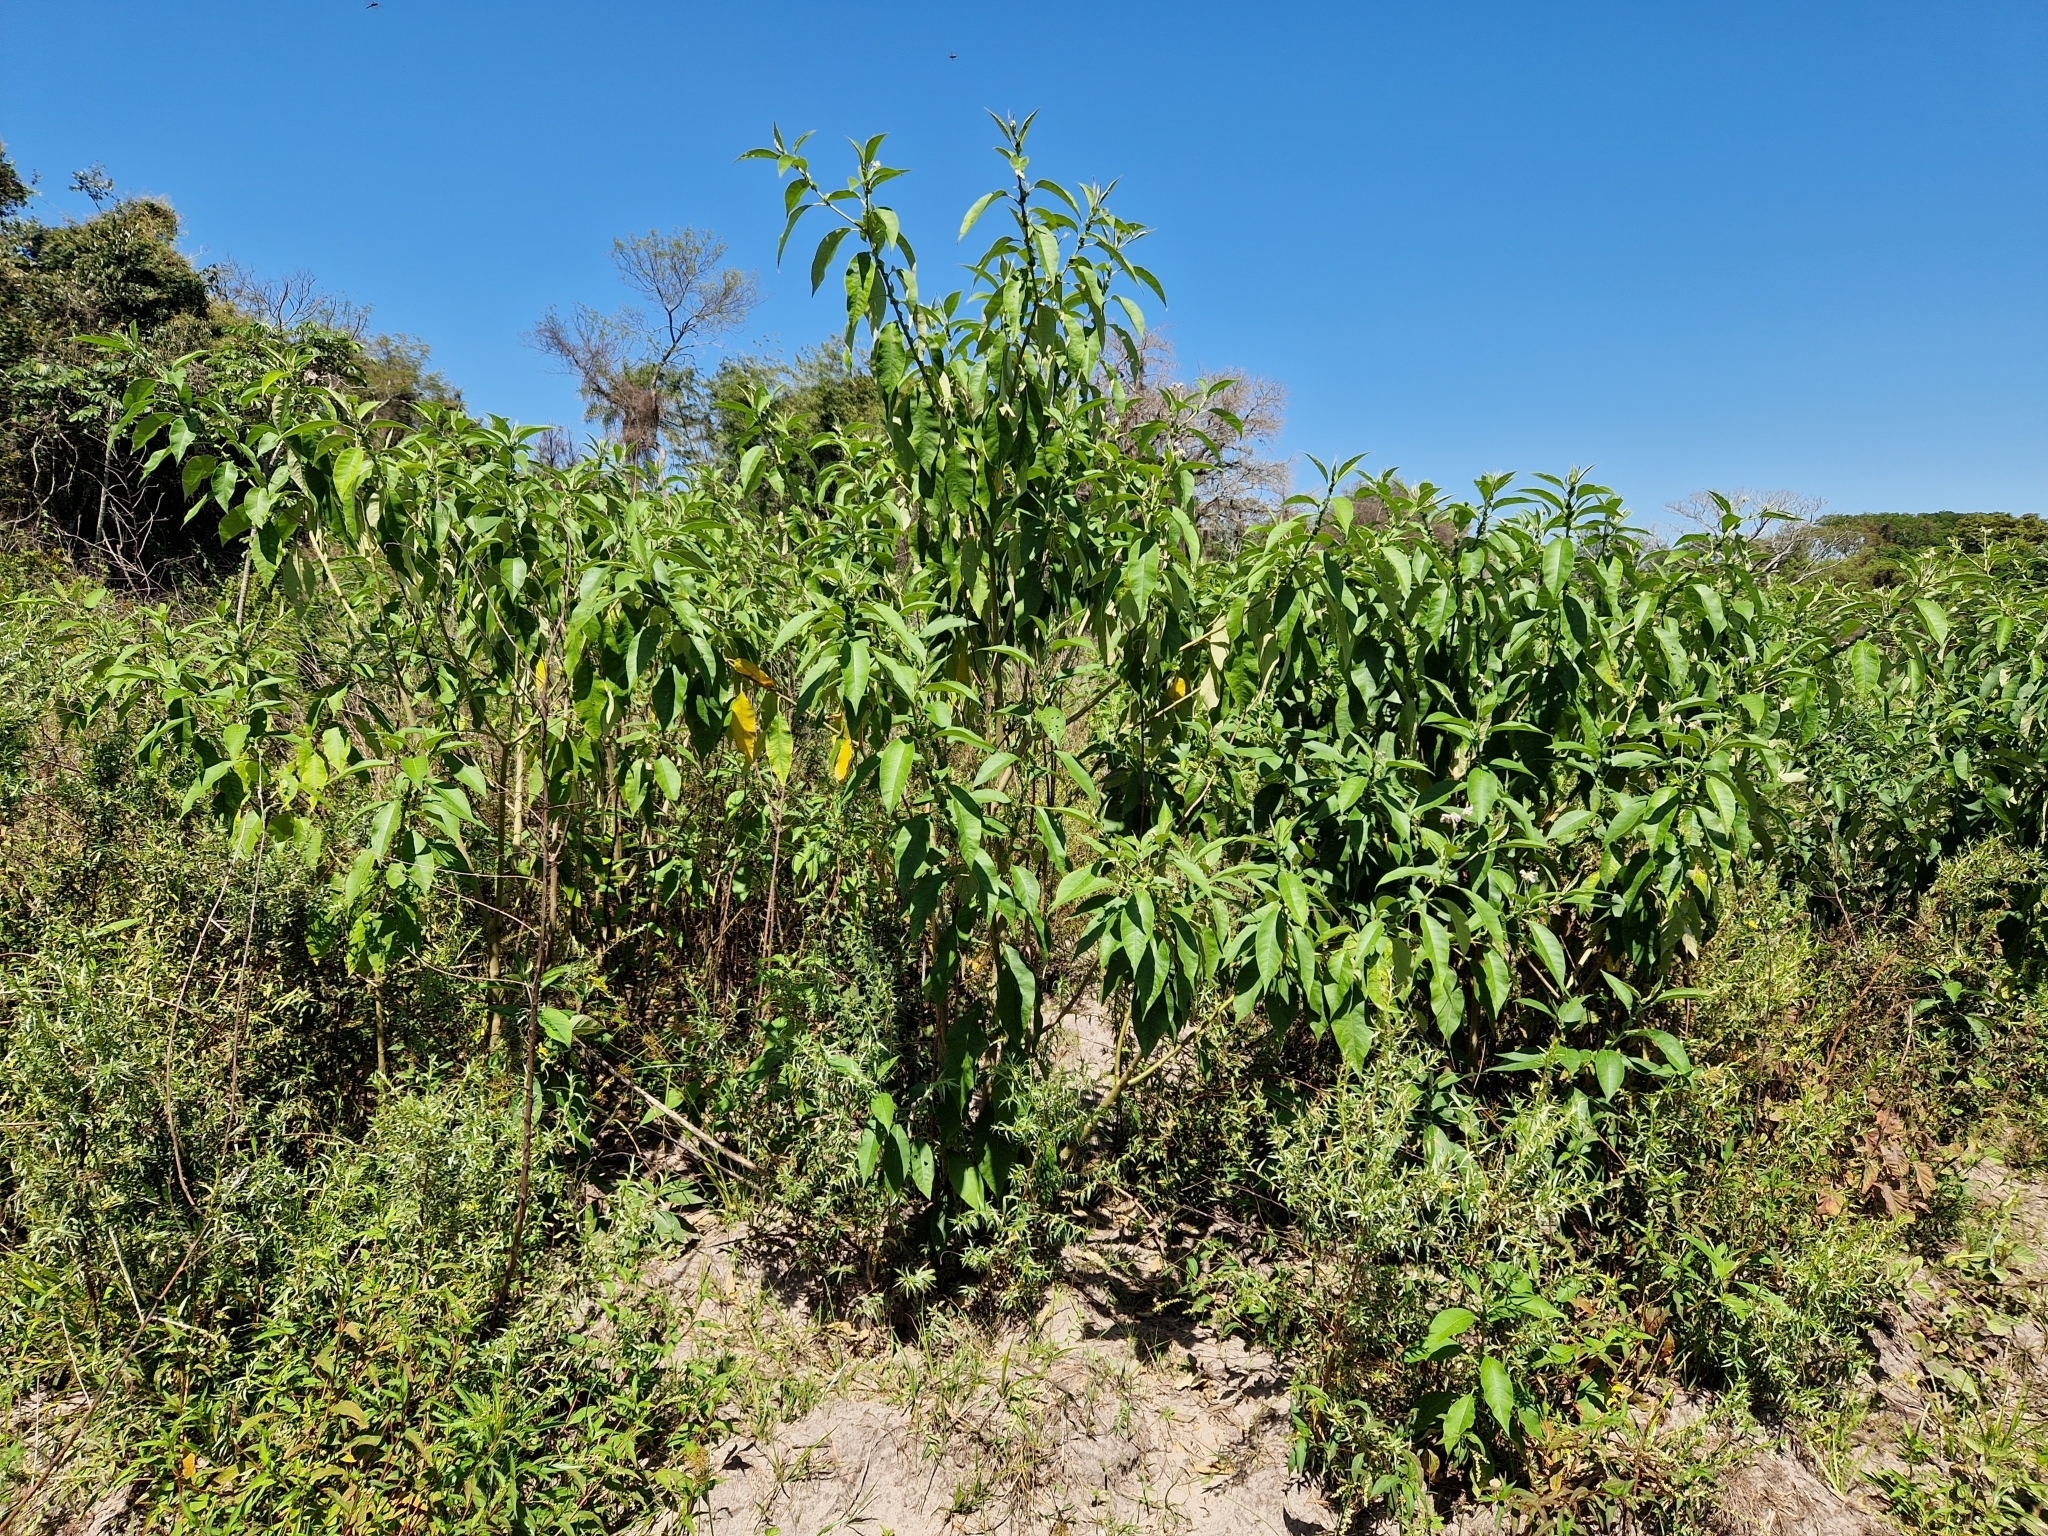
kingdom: Plantae
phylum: Tracheophyta
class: Magnoliopsida
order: Solanales
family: Solanaceae
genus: Solanum
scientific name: Solanum granulosoleprosum
